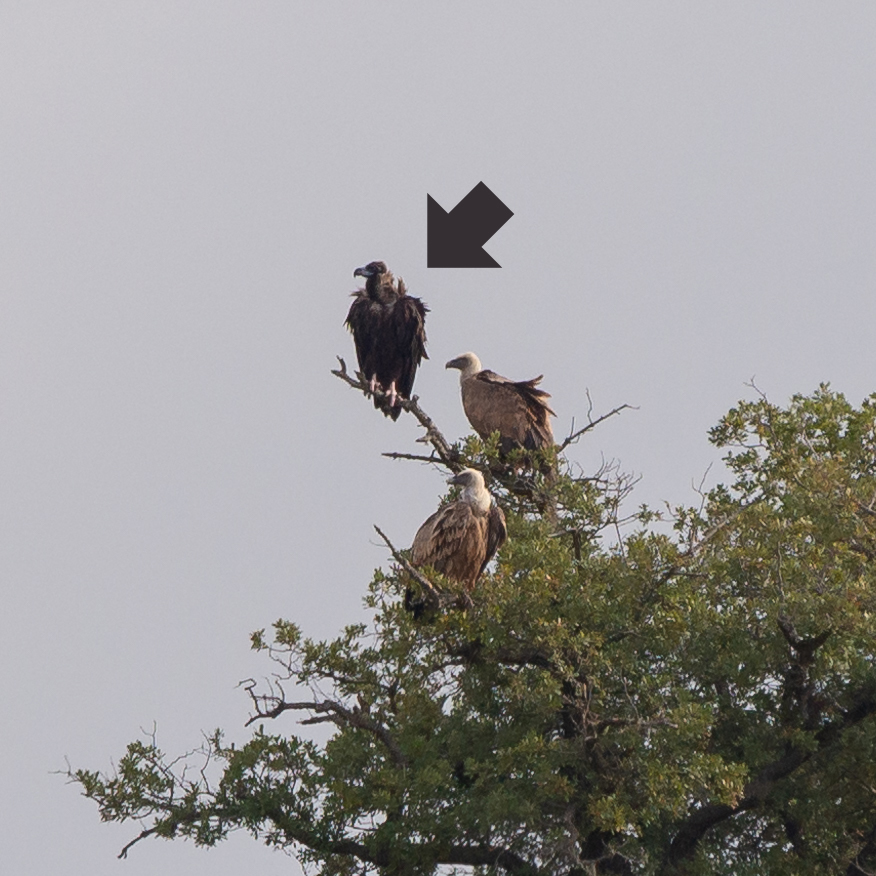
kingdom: Animalia
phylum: Chordata
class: Aves
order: Accipitriformes
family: Accipitridae
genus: Aegypius
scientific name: Aegypius monachus
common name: Cinereous vulture
